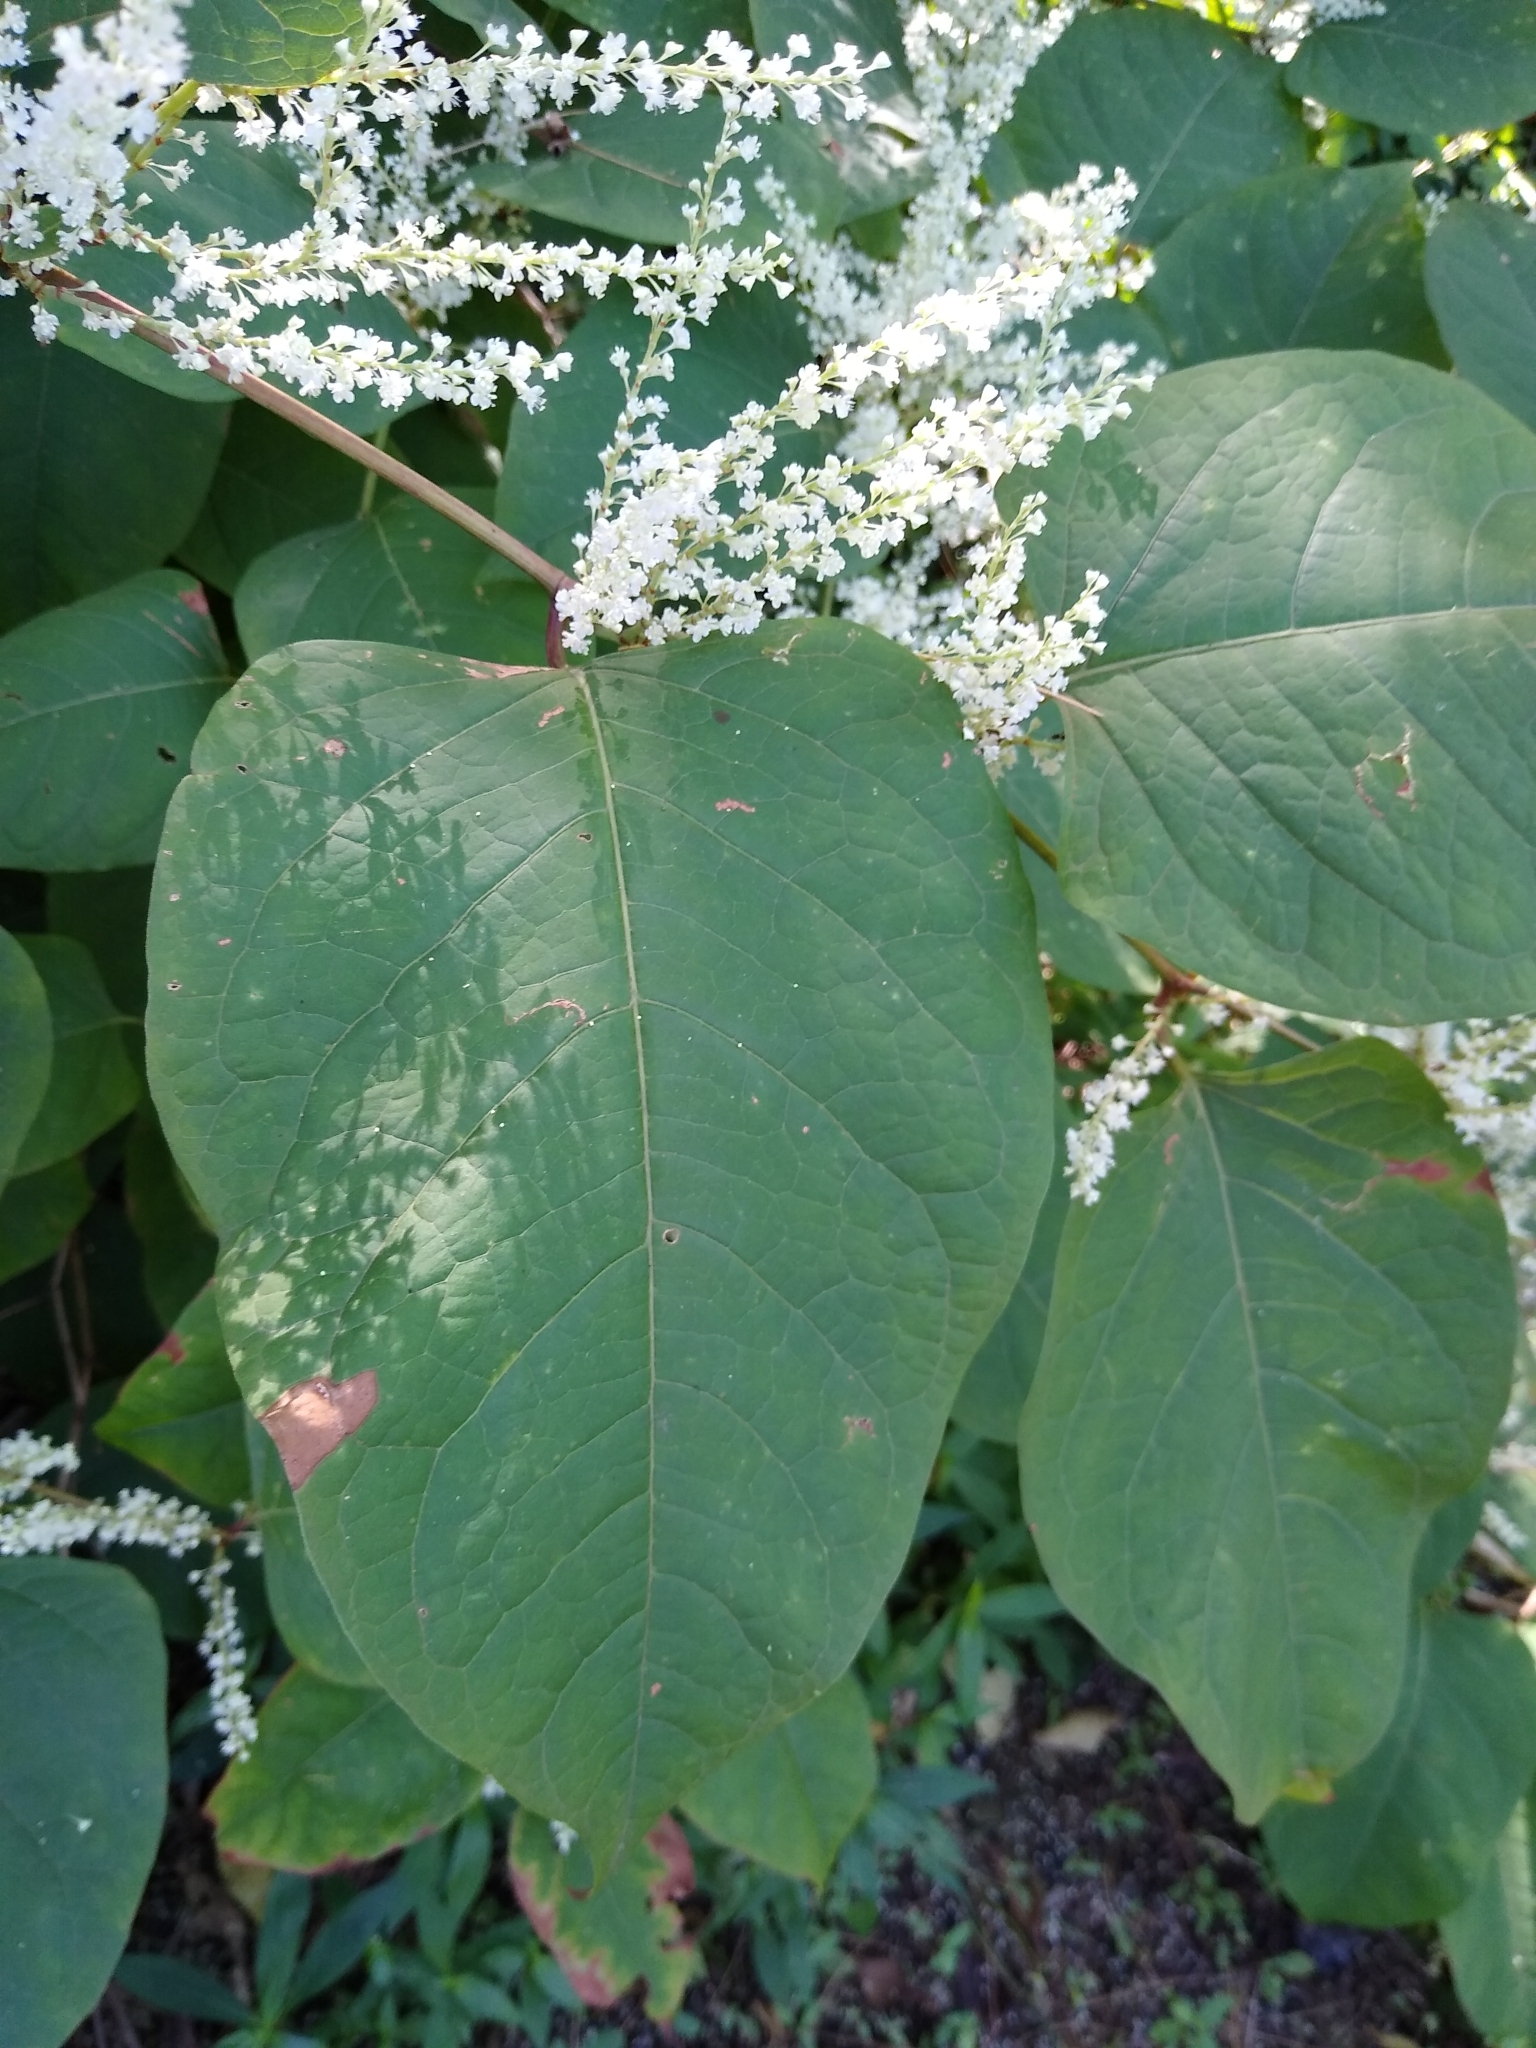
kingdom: Plantae
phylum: Tracheophyta
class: Magnoliopsida
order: Caryophyllales
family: Polygonaceae
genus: Reynoutria
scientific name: Reynoutria japonica
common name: Japanese knotweed
